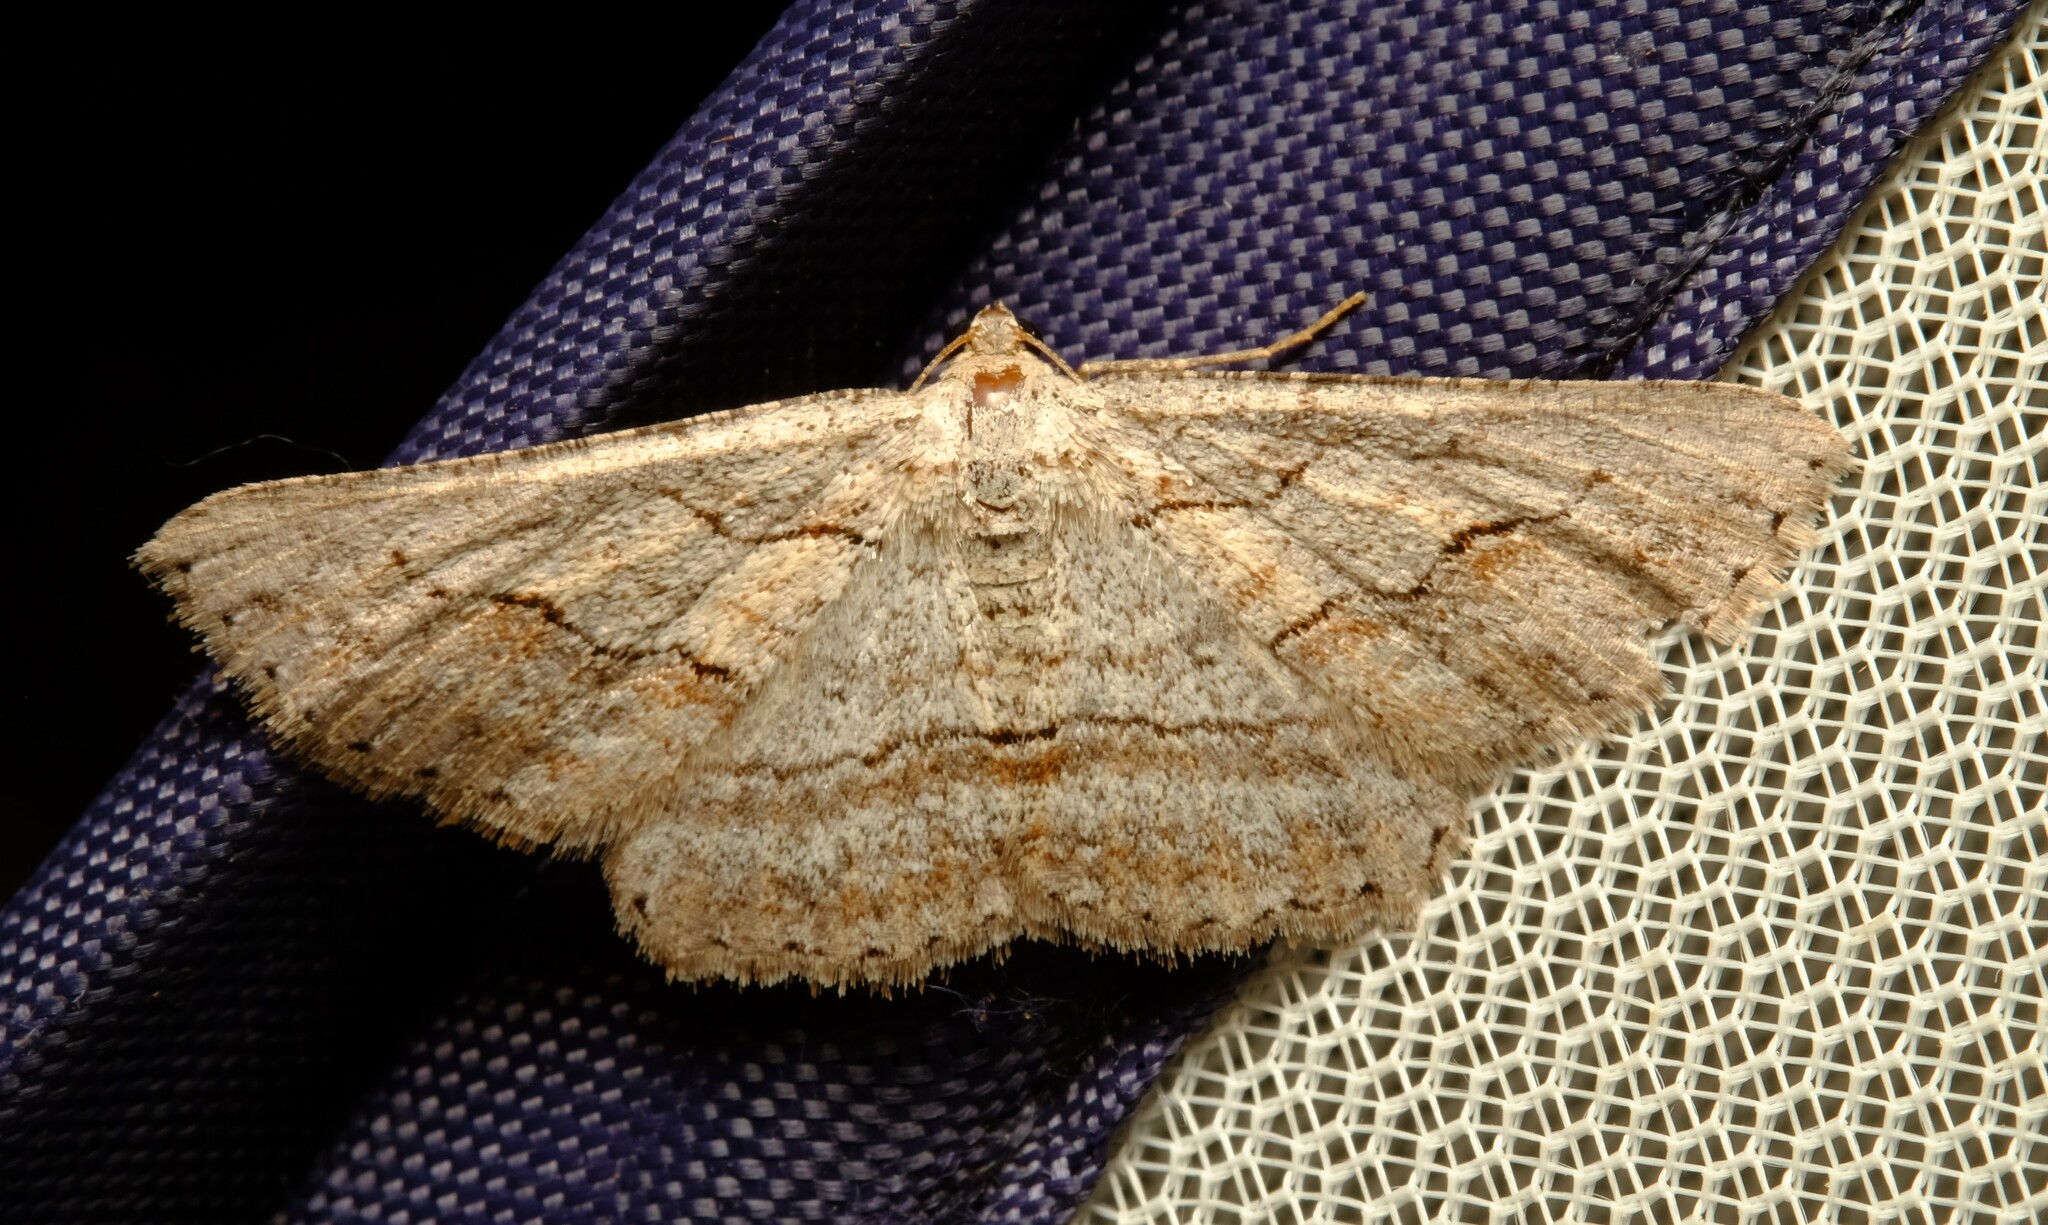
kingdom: Animalia
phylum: Arthropoda
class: Insecta
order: Lepidoptera
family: Geometridae
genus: Syneora
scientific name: Syneora mundifera
